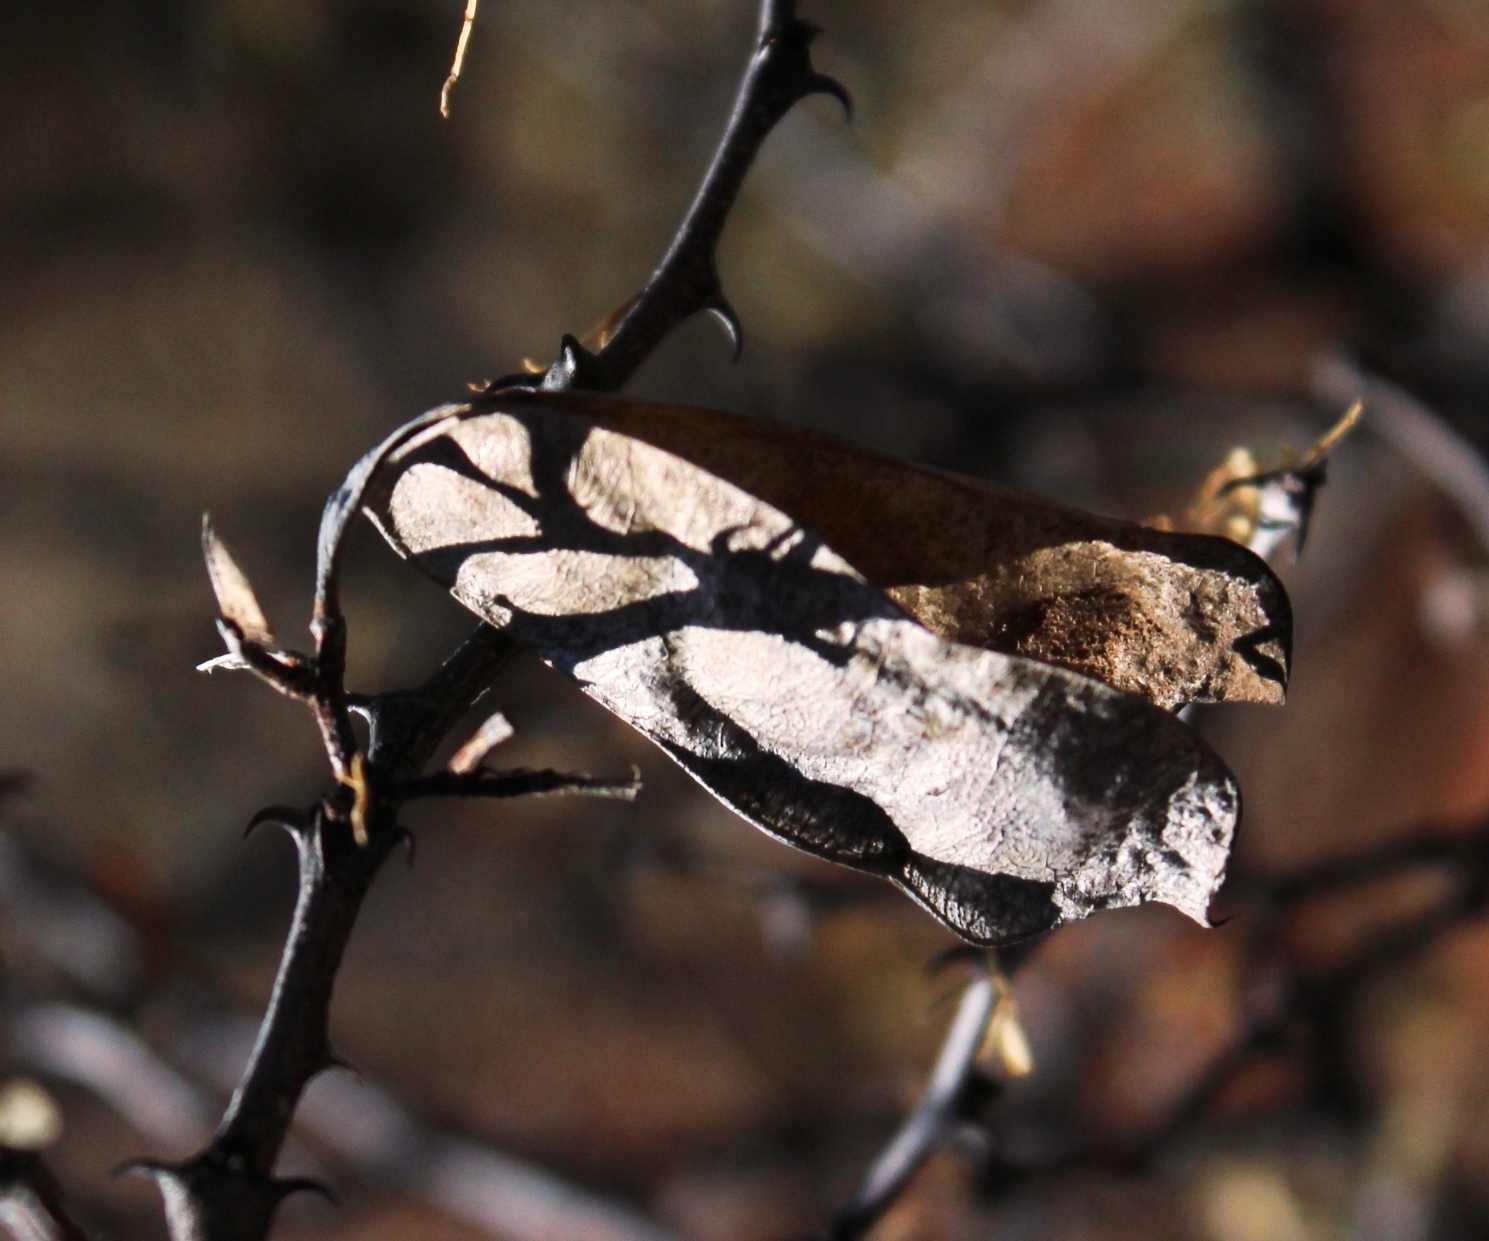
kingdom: Plantae
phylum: Tracheophyta
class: Magnoliopsida
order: Fabales
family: Fabaceae
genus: Senegalia
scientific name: Senegalia mellifera
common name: Hookthorn
